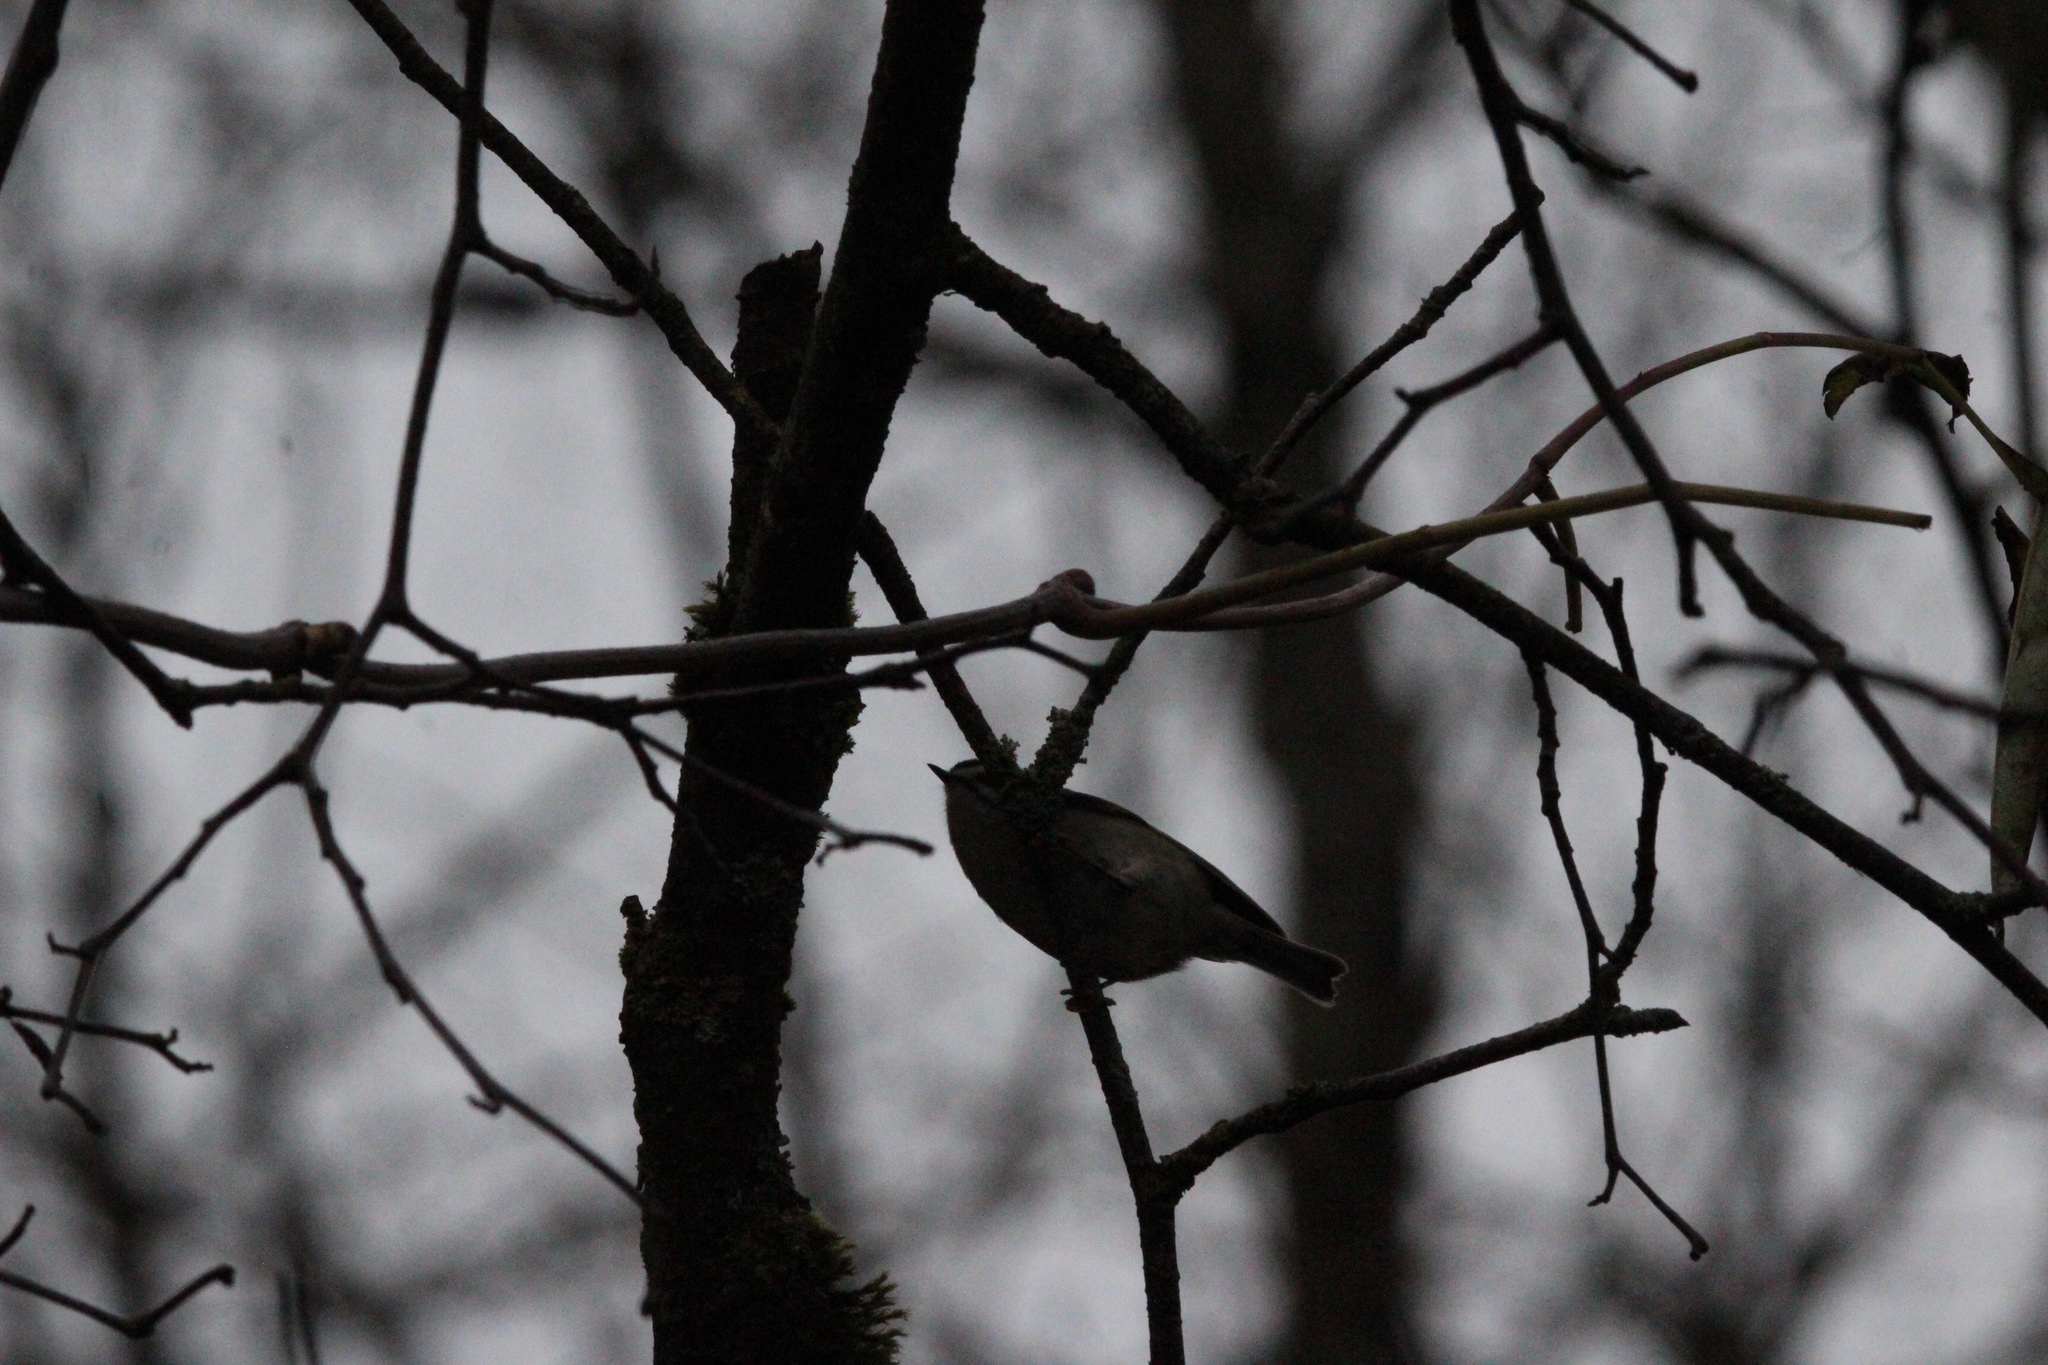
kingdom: Animalia
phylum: Chordata
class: Aves
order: Passeriformes
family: Regulidae
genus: Regulus
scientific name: Regulus satrapa
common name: Golden-crowned kinglet
